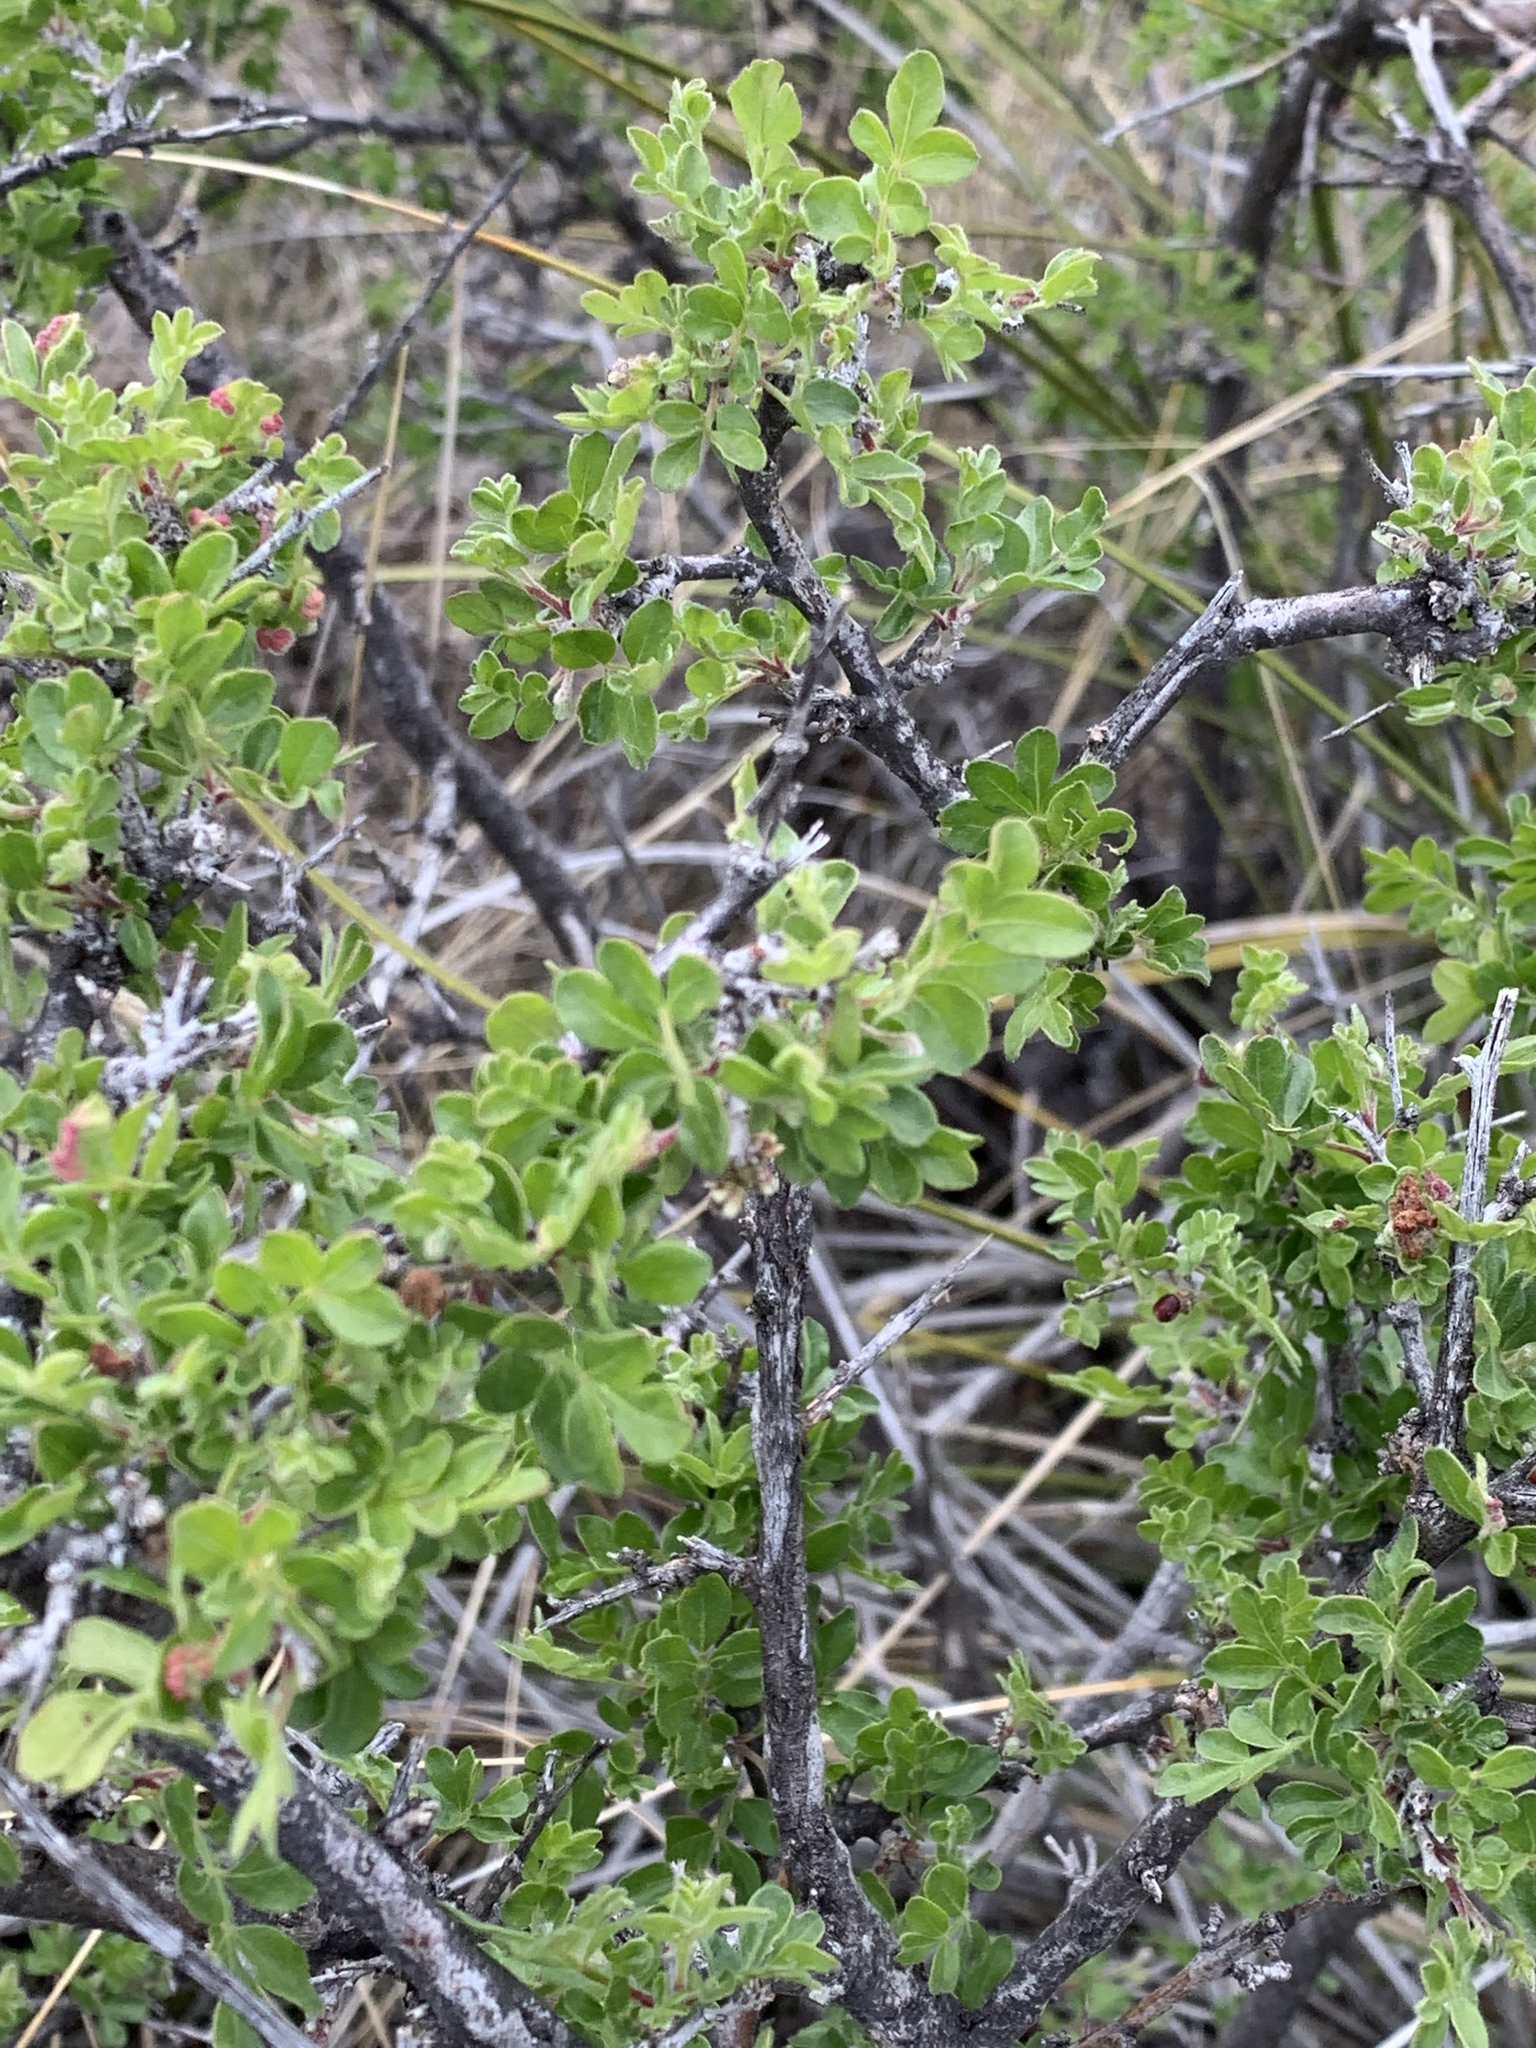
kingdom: Plantae
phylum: Tracheophyta
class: Magnoliopsida
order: Sapindales
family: Anacardiaceae
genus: Rhus
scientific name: Rhus microphylla
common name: Desert sumac
